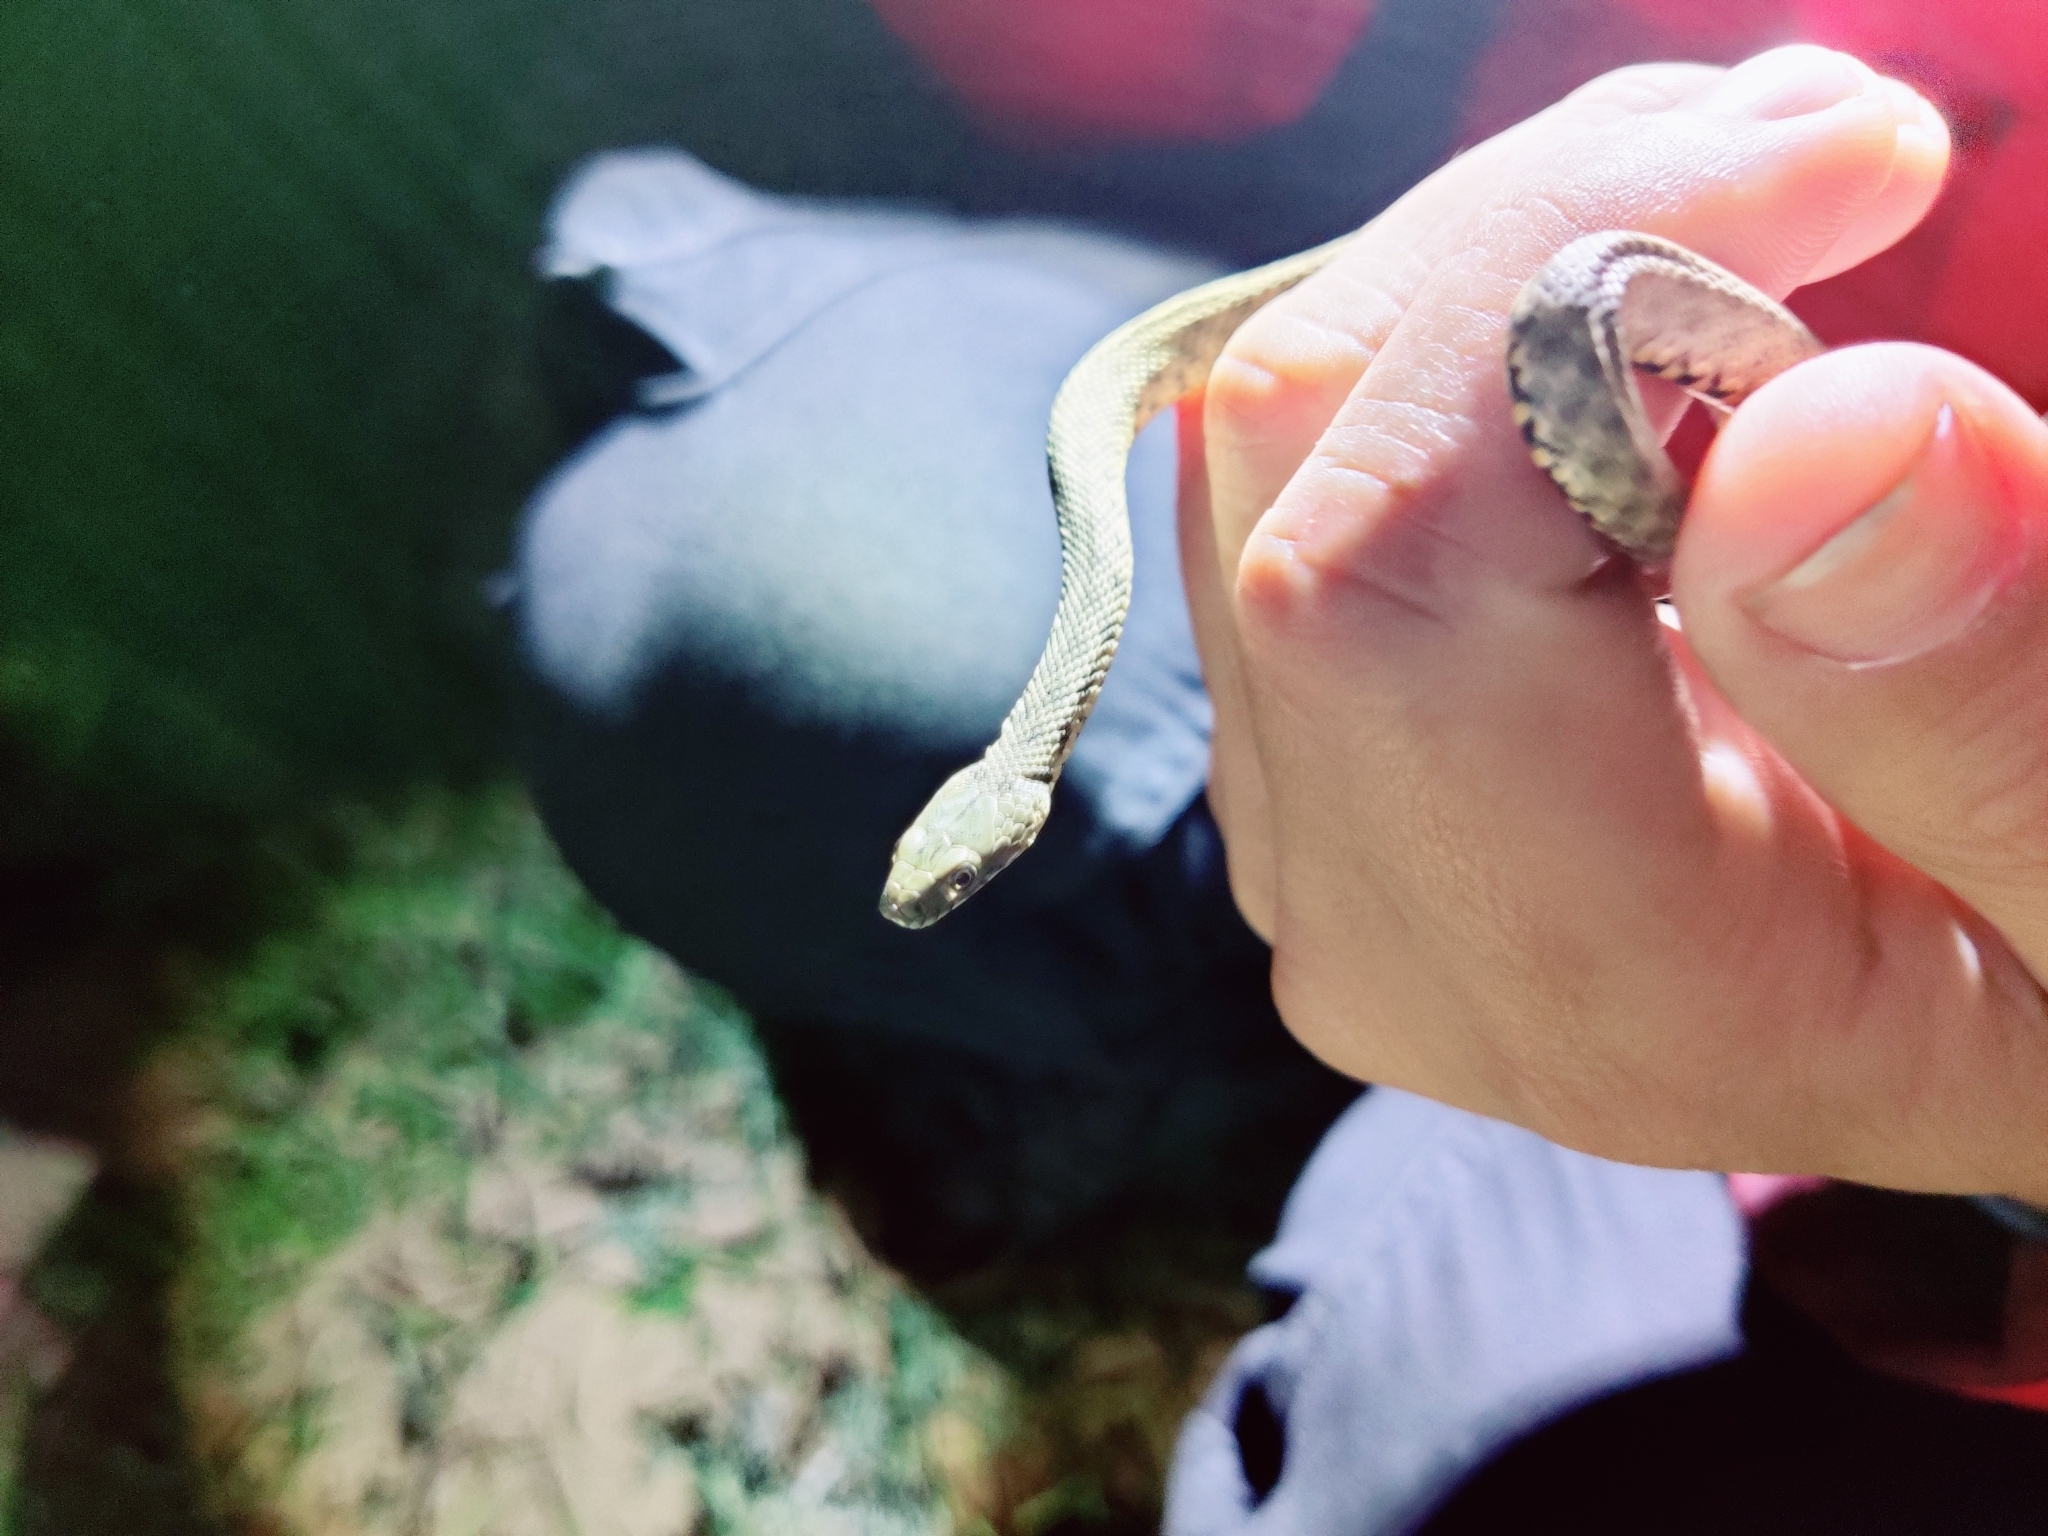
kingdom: Animalia
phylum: Chordata
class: Squamata
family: Colubridae
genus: Natrix
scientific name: Natrix tessellata
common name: Dice snake
